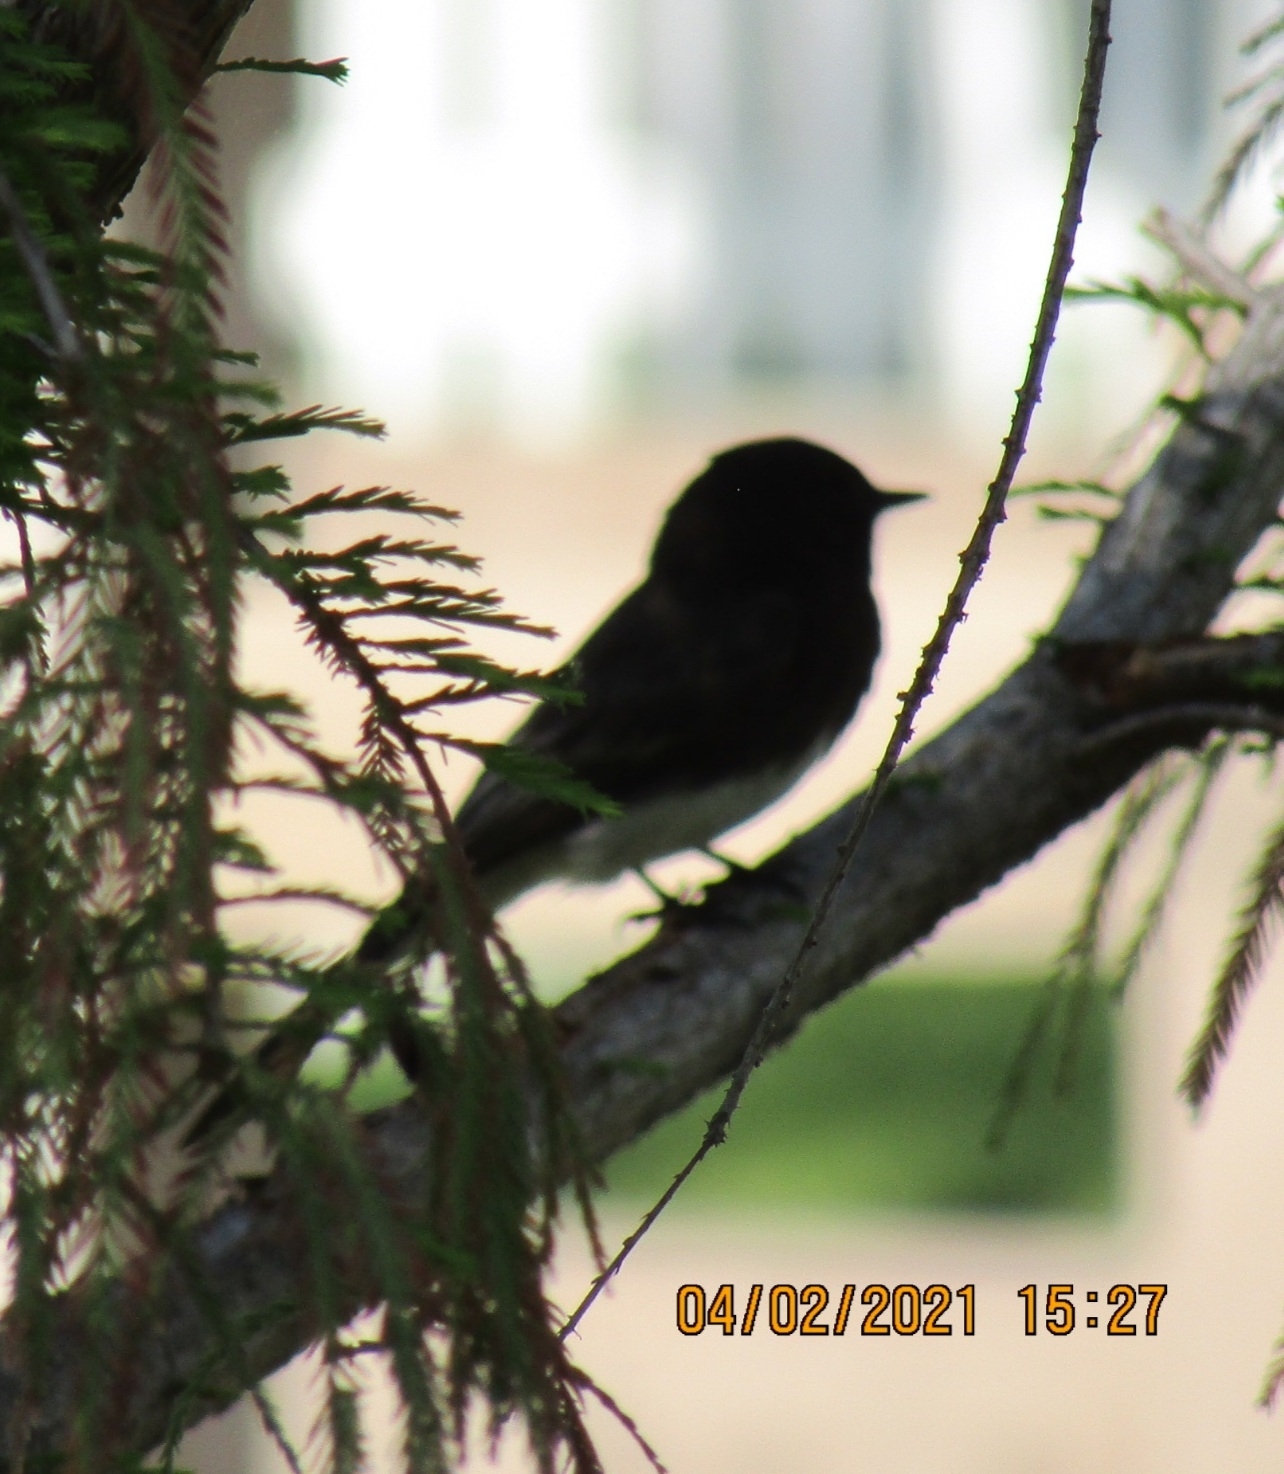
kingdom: Animalia
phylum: Chordata
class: Aves
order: Passeriformes
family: Tyrannidae
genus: Sayornis
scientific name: Sayornis nigricans
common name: Black phoebe
